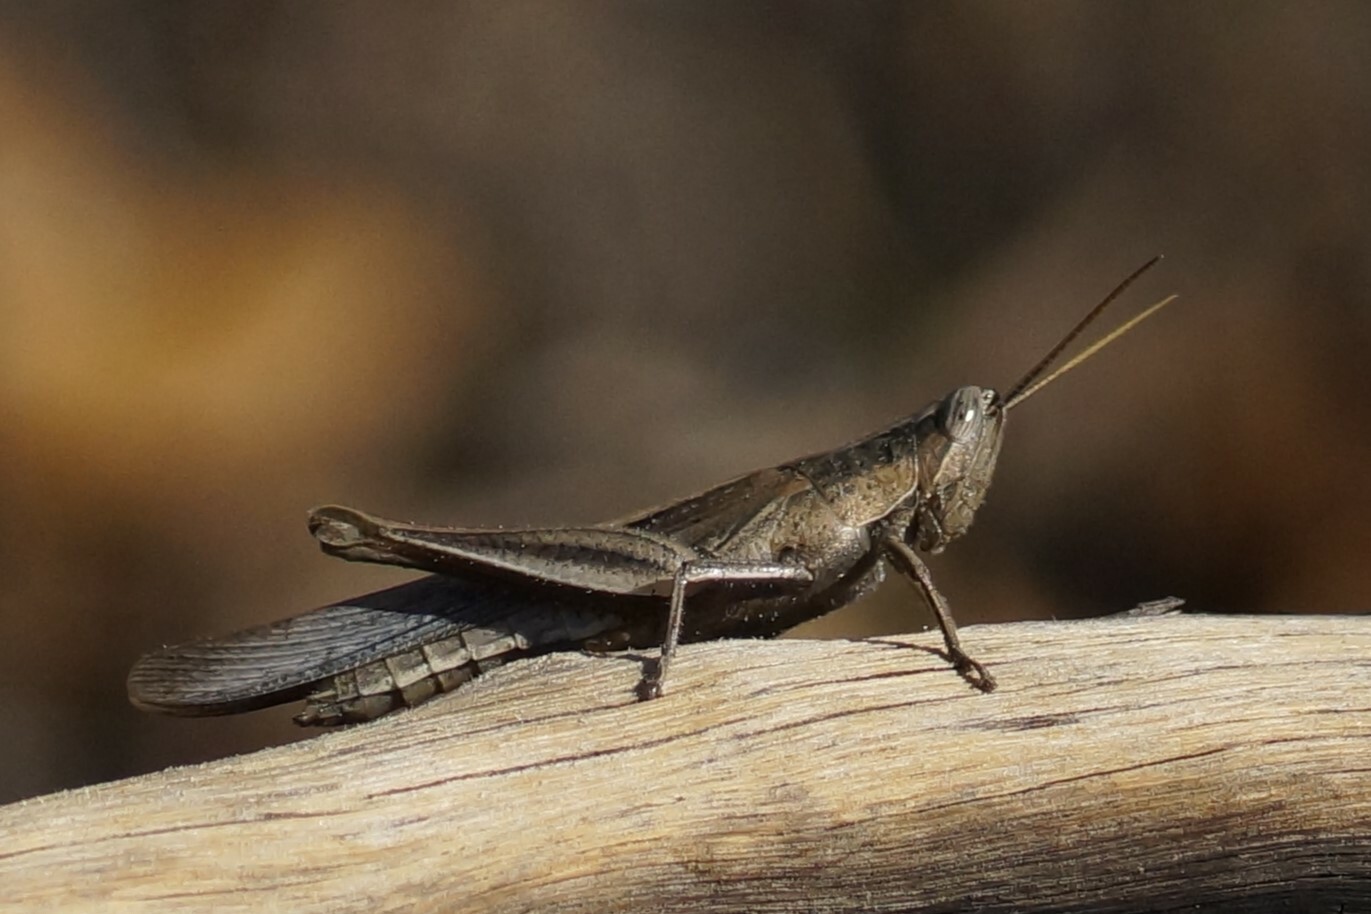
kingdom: Animalia
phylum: Arthropoda
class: Insecta
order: Orthoptera
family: Acrididae
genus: Stenocatantops
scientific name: Stenocatantops vitripennis
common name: Light-brown sharptail
